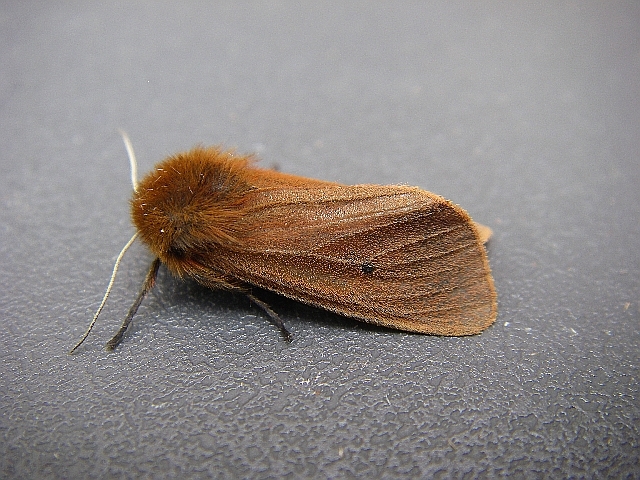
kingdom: Animalia
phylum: Arthropoda
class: Insecta
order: Lepidoptera
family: Erebidae
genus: Phragmatobia
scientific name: Phragmatobia fuliginosa
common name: Ruby tiger
